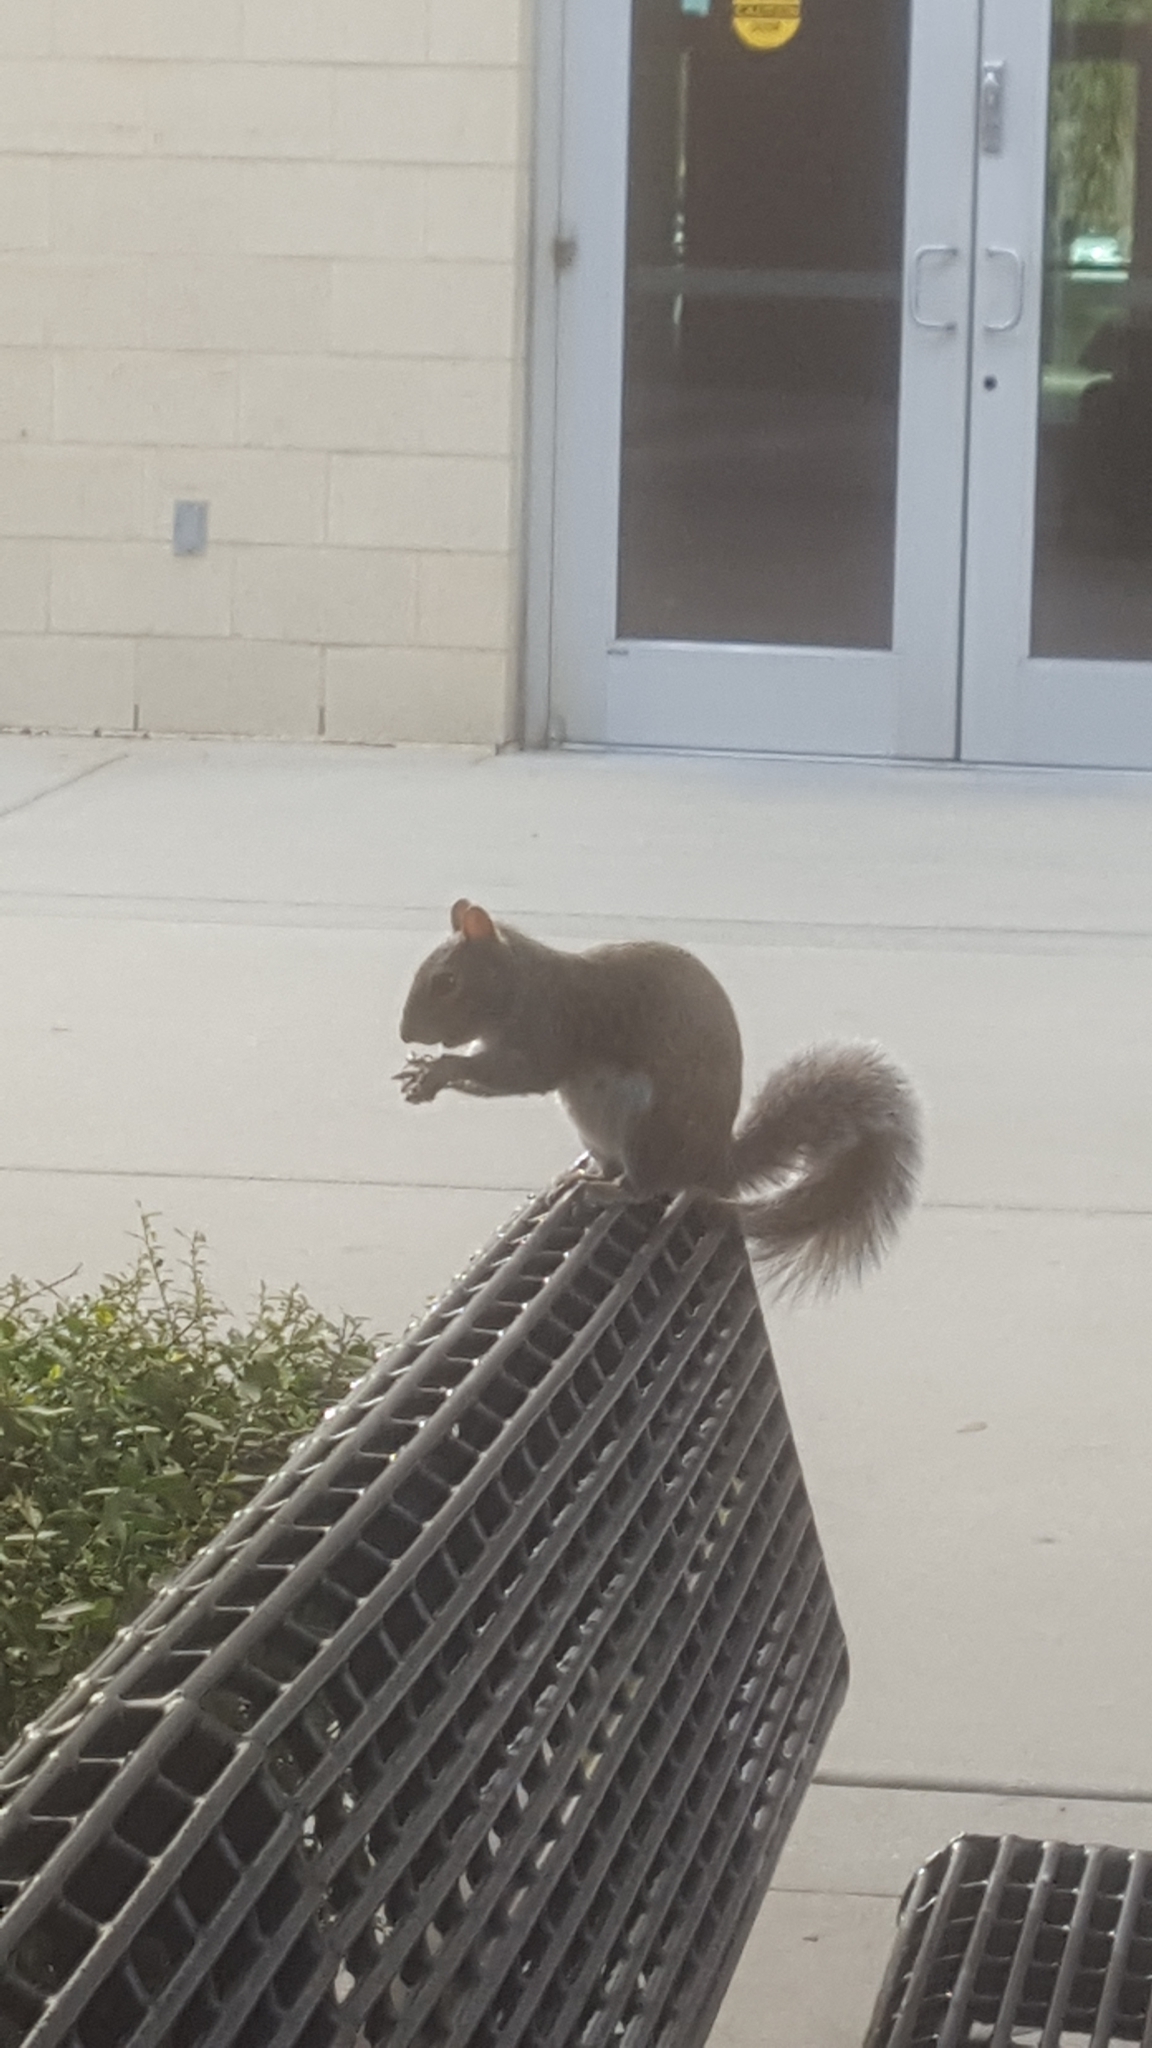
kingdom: Animalia
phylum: Chordata
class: Mammalia
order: Rodentia
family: Sciuridae
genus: Sciurus
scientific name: Sciurus carolinensis
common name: Eastern gray squirrel
